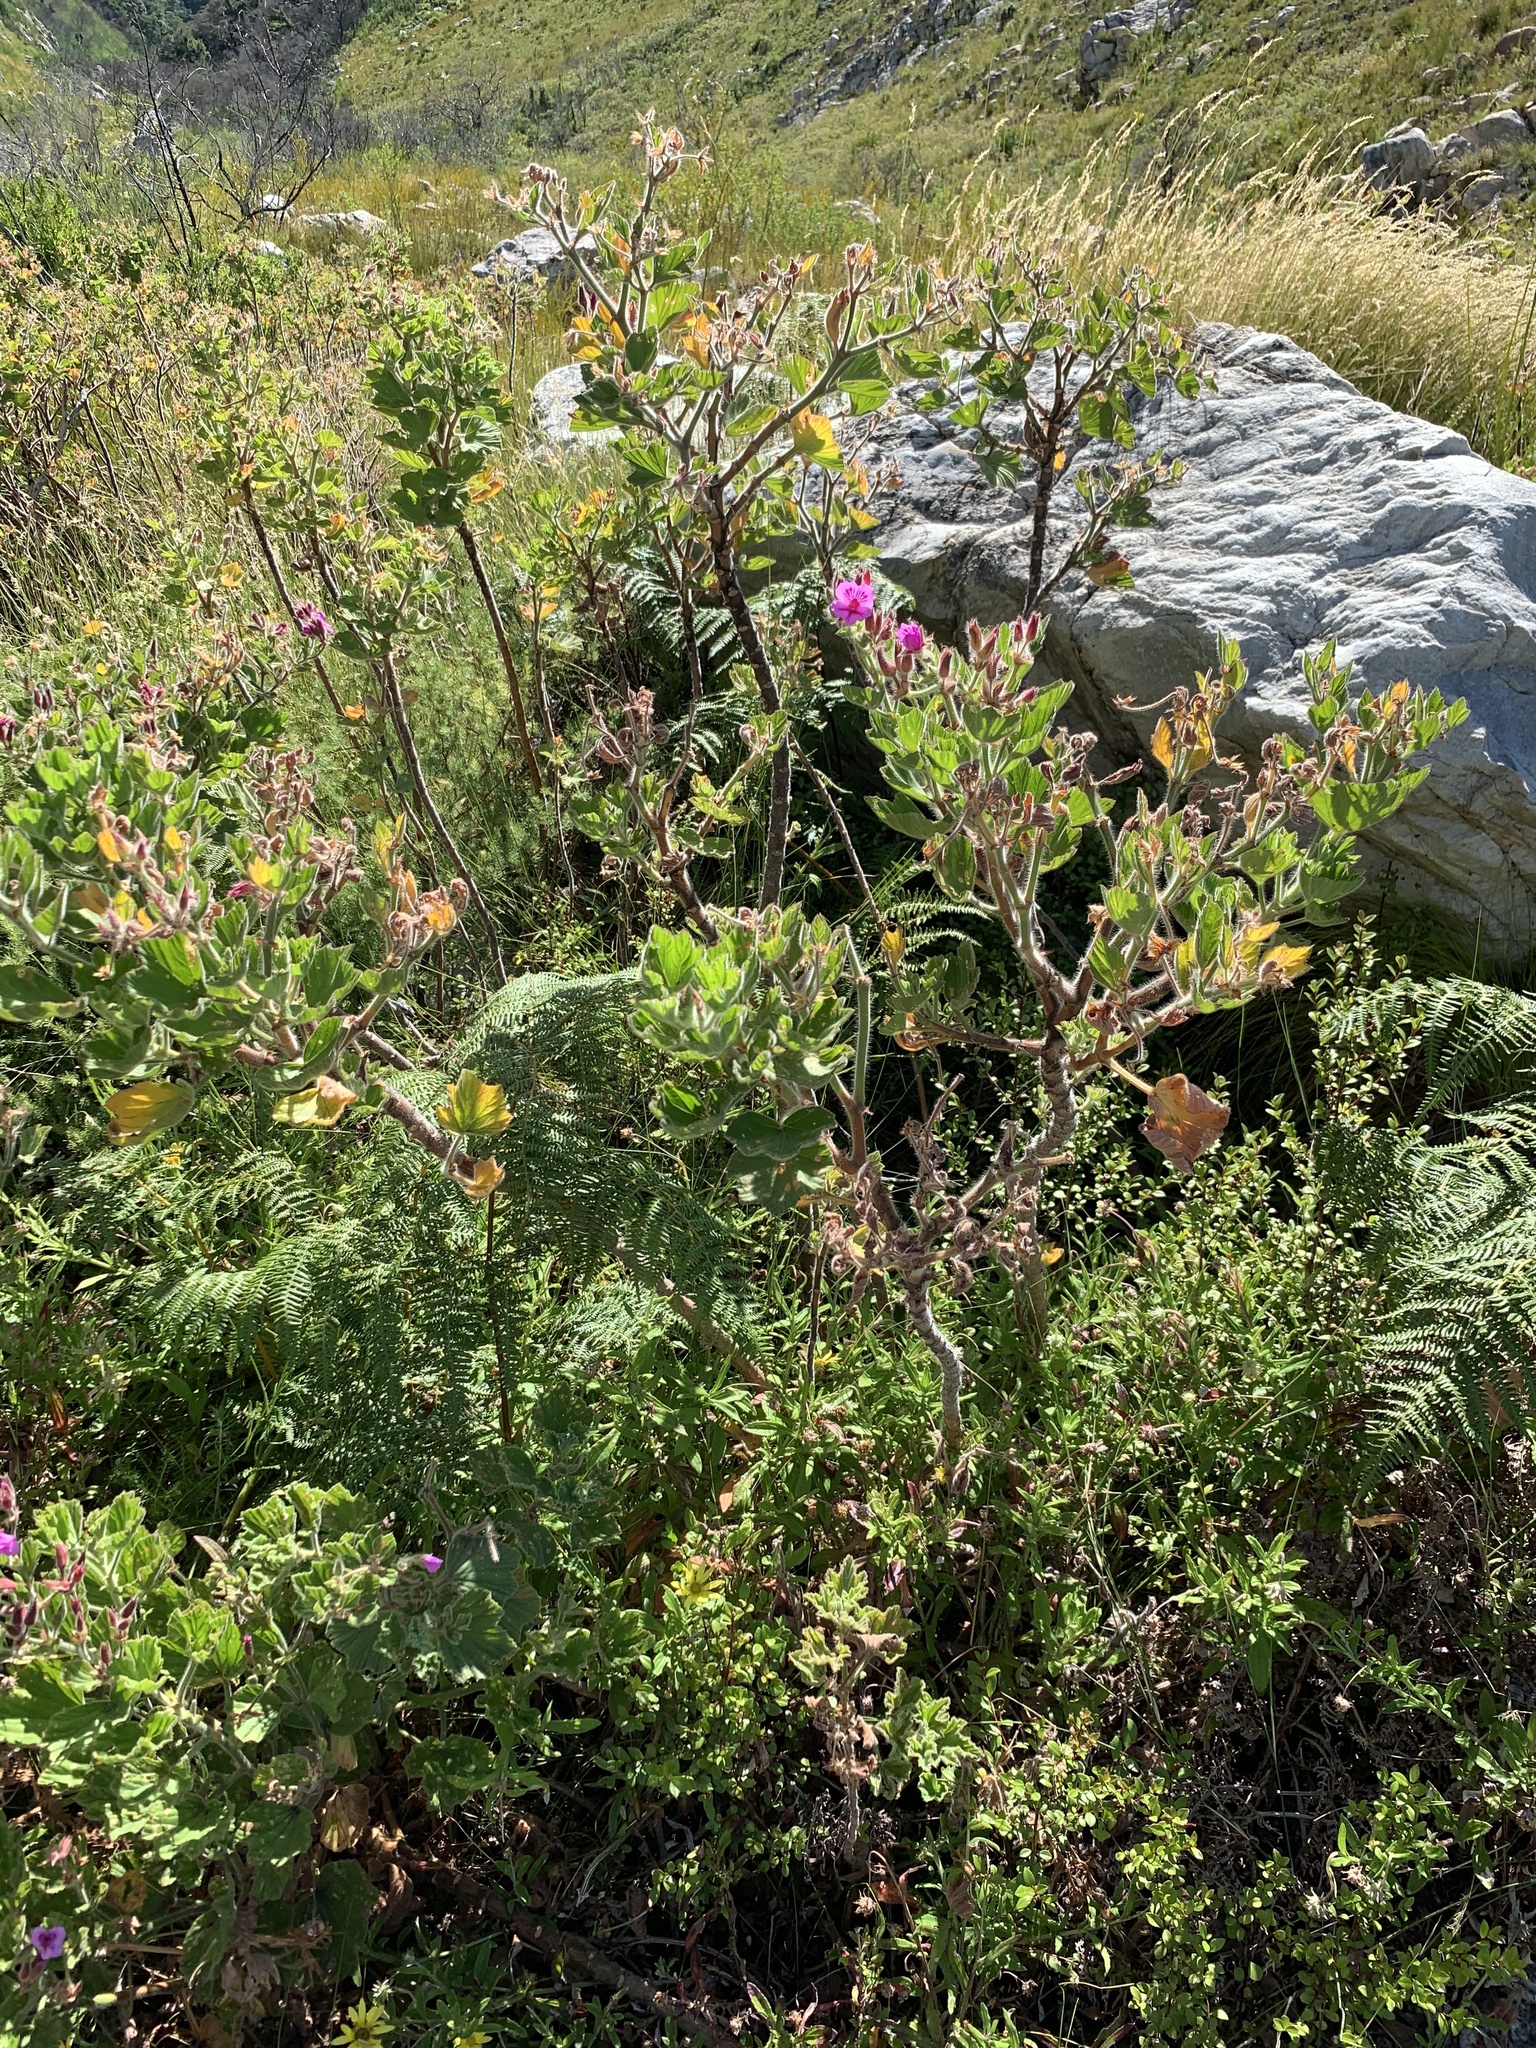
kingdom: Plantae
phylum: Tracheophyta
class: Magnoliopsida
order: Geraniales
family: Geraniaceae
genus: Pelargonium
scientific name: Pelargonium cucullatum
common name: Tree pelargonium
